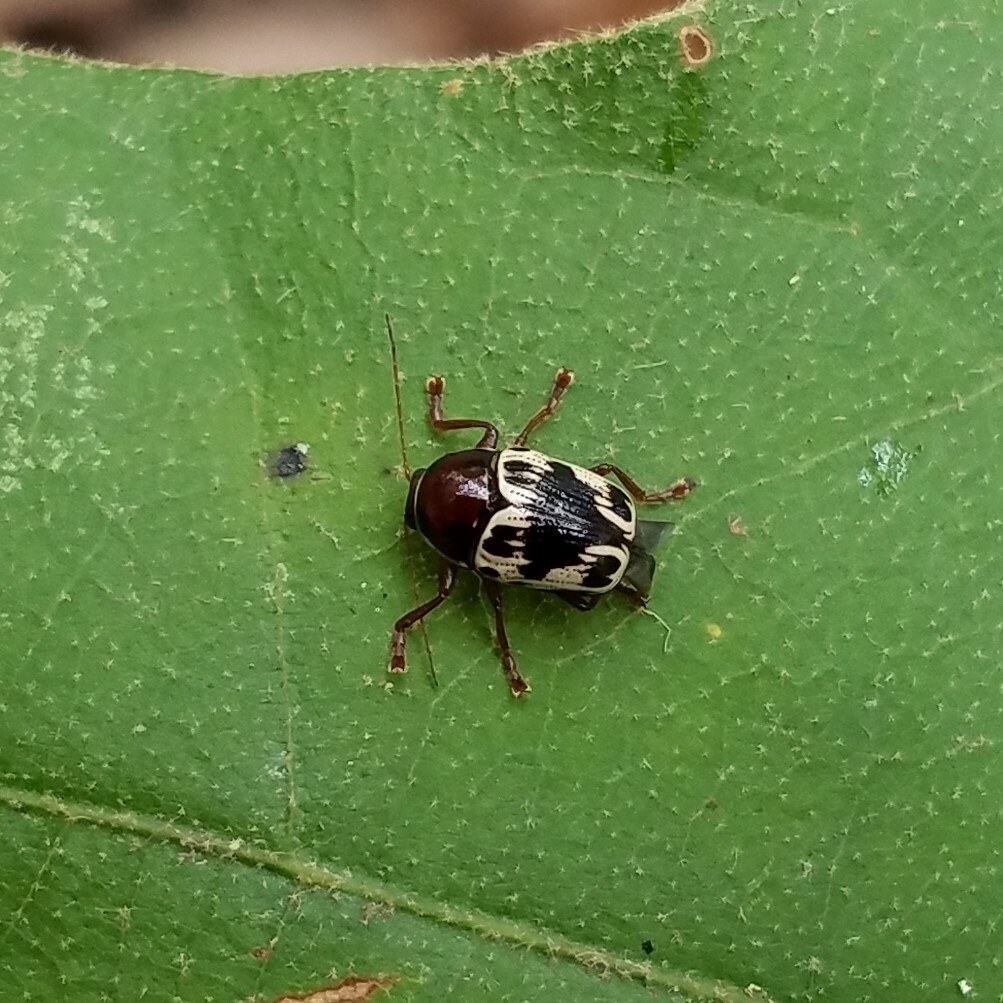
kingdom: Animalia
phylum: Arthropoda
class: Insecta
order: Coleoptera
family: Chrysomelidae
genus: Cryptocephalus
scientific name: Cryptocephalus mutabilis
